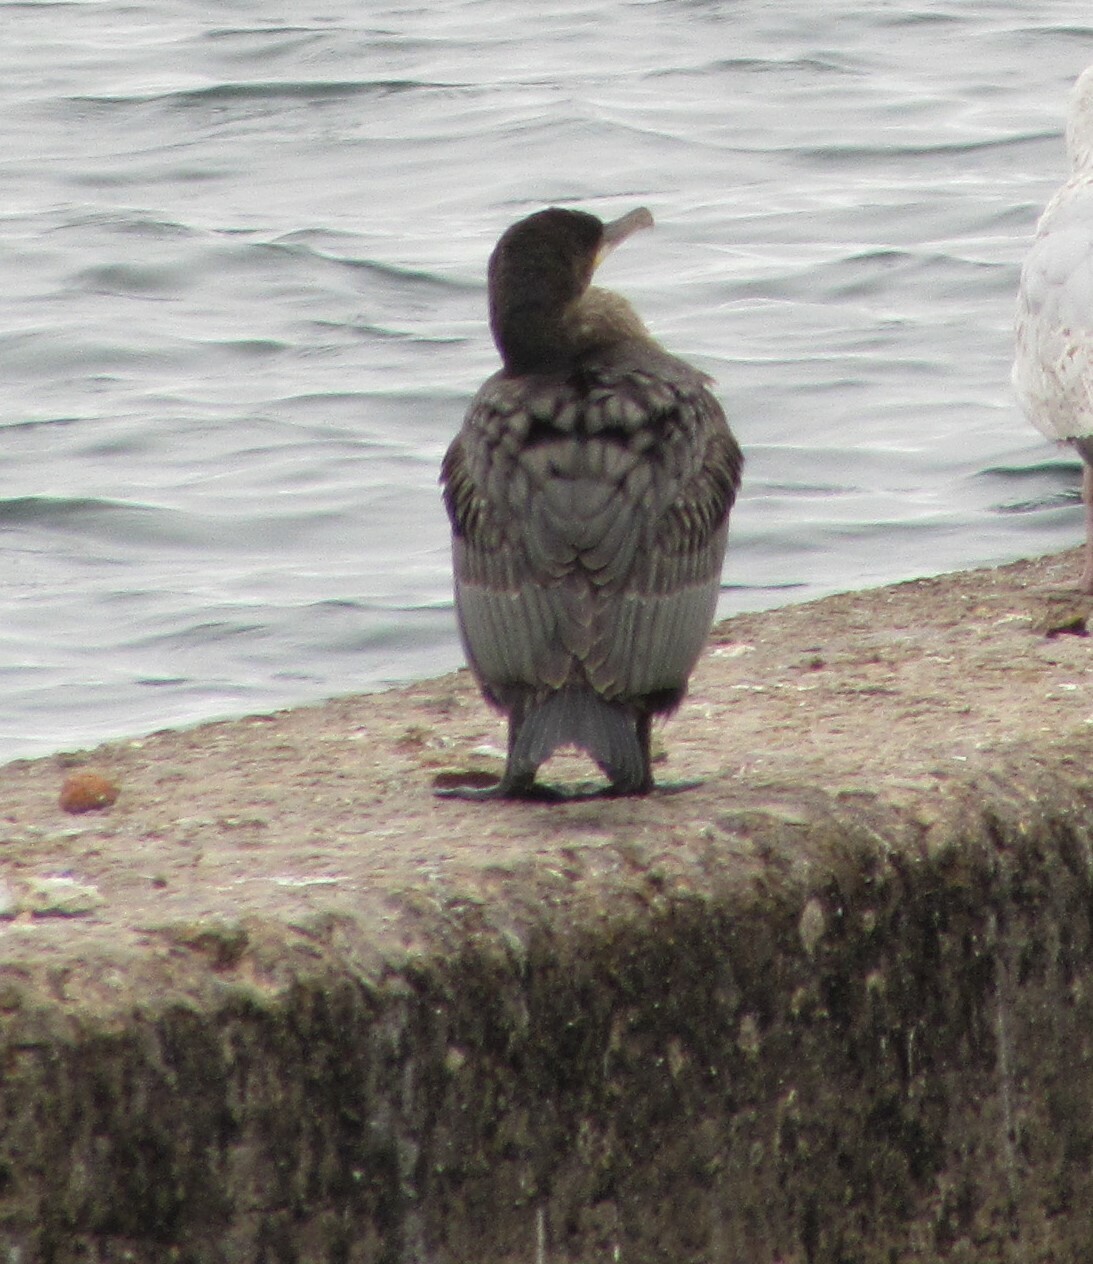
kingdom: Animalia
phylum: Chordata
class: Aves
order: Suliformes
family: Phalacrocoracidae
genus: Phalacrocorax
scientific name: Phalacrocorax carbo
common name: Great cormorant
